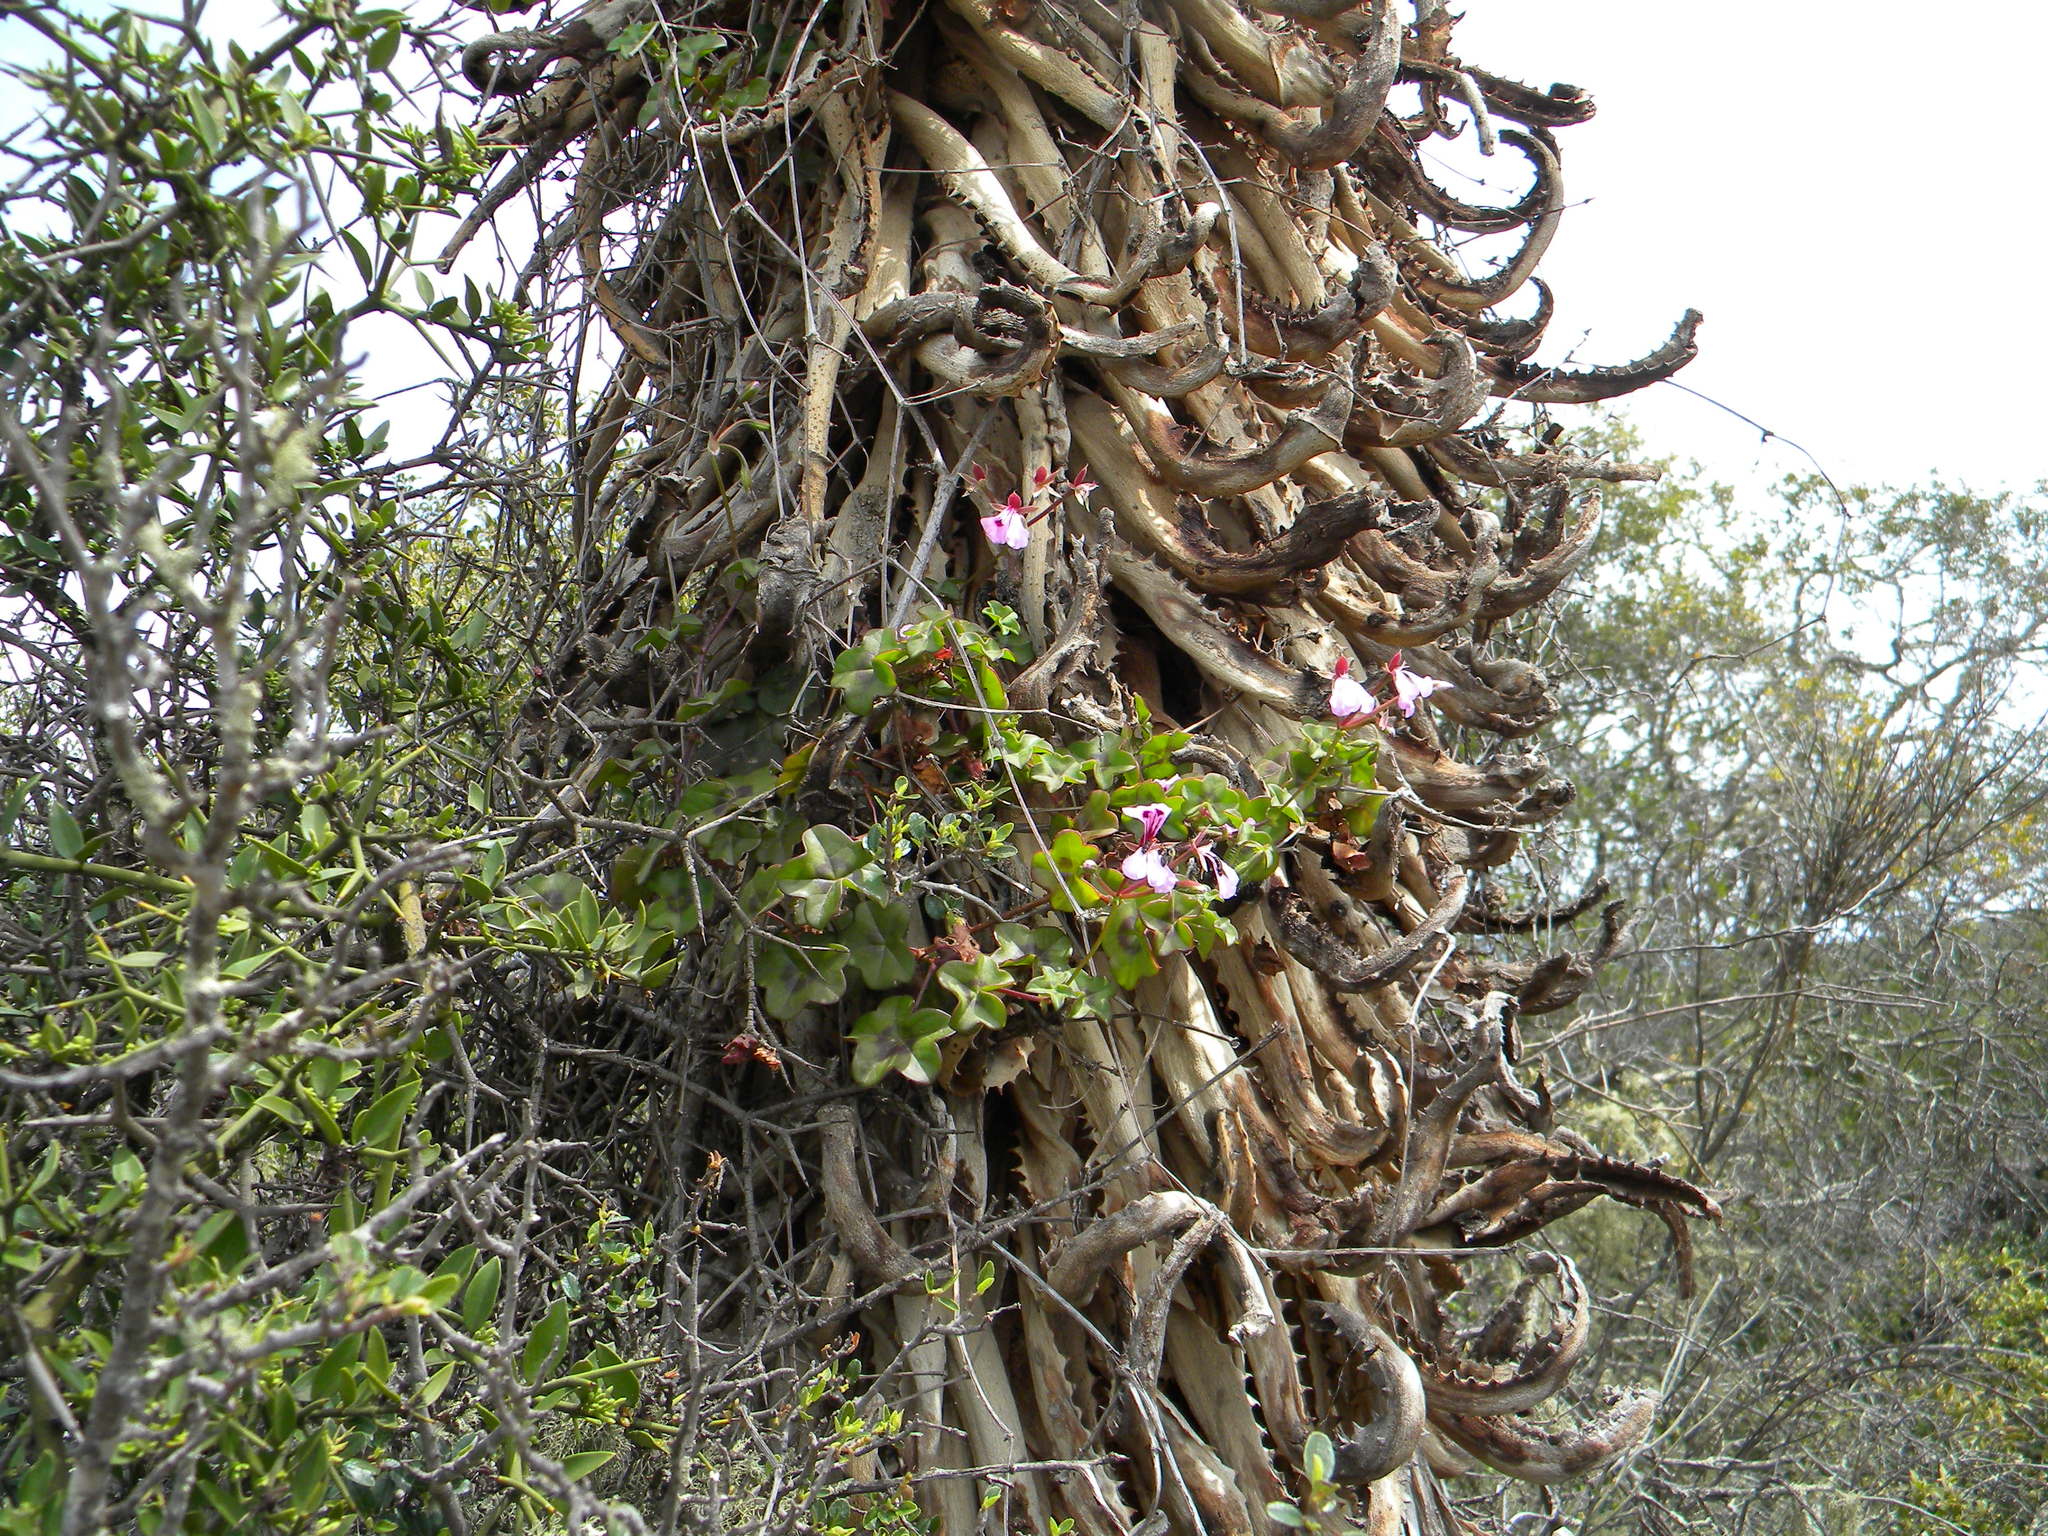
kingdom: Plantae
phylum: Tracheophyta
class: Magnoliopsida
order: Geraniales
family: Geraniaceae
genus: Pelargonium
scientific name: Pelargonium peltatum
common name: Ivyleaf geranium
